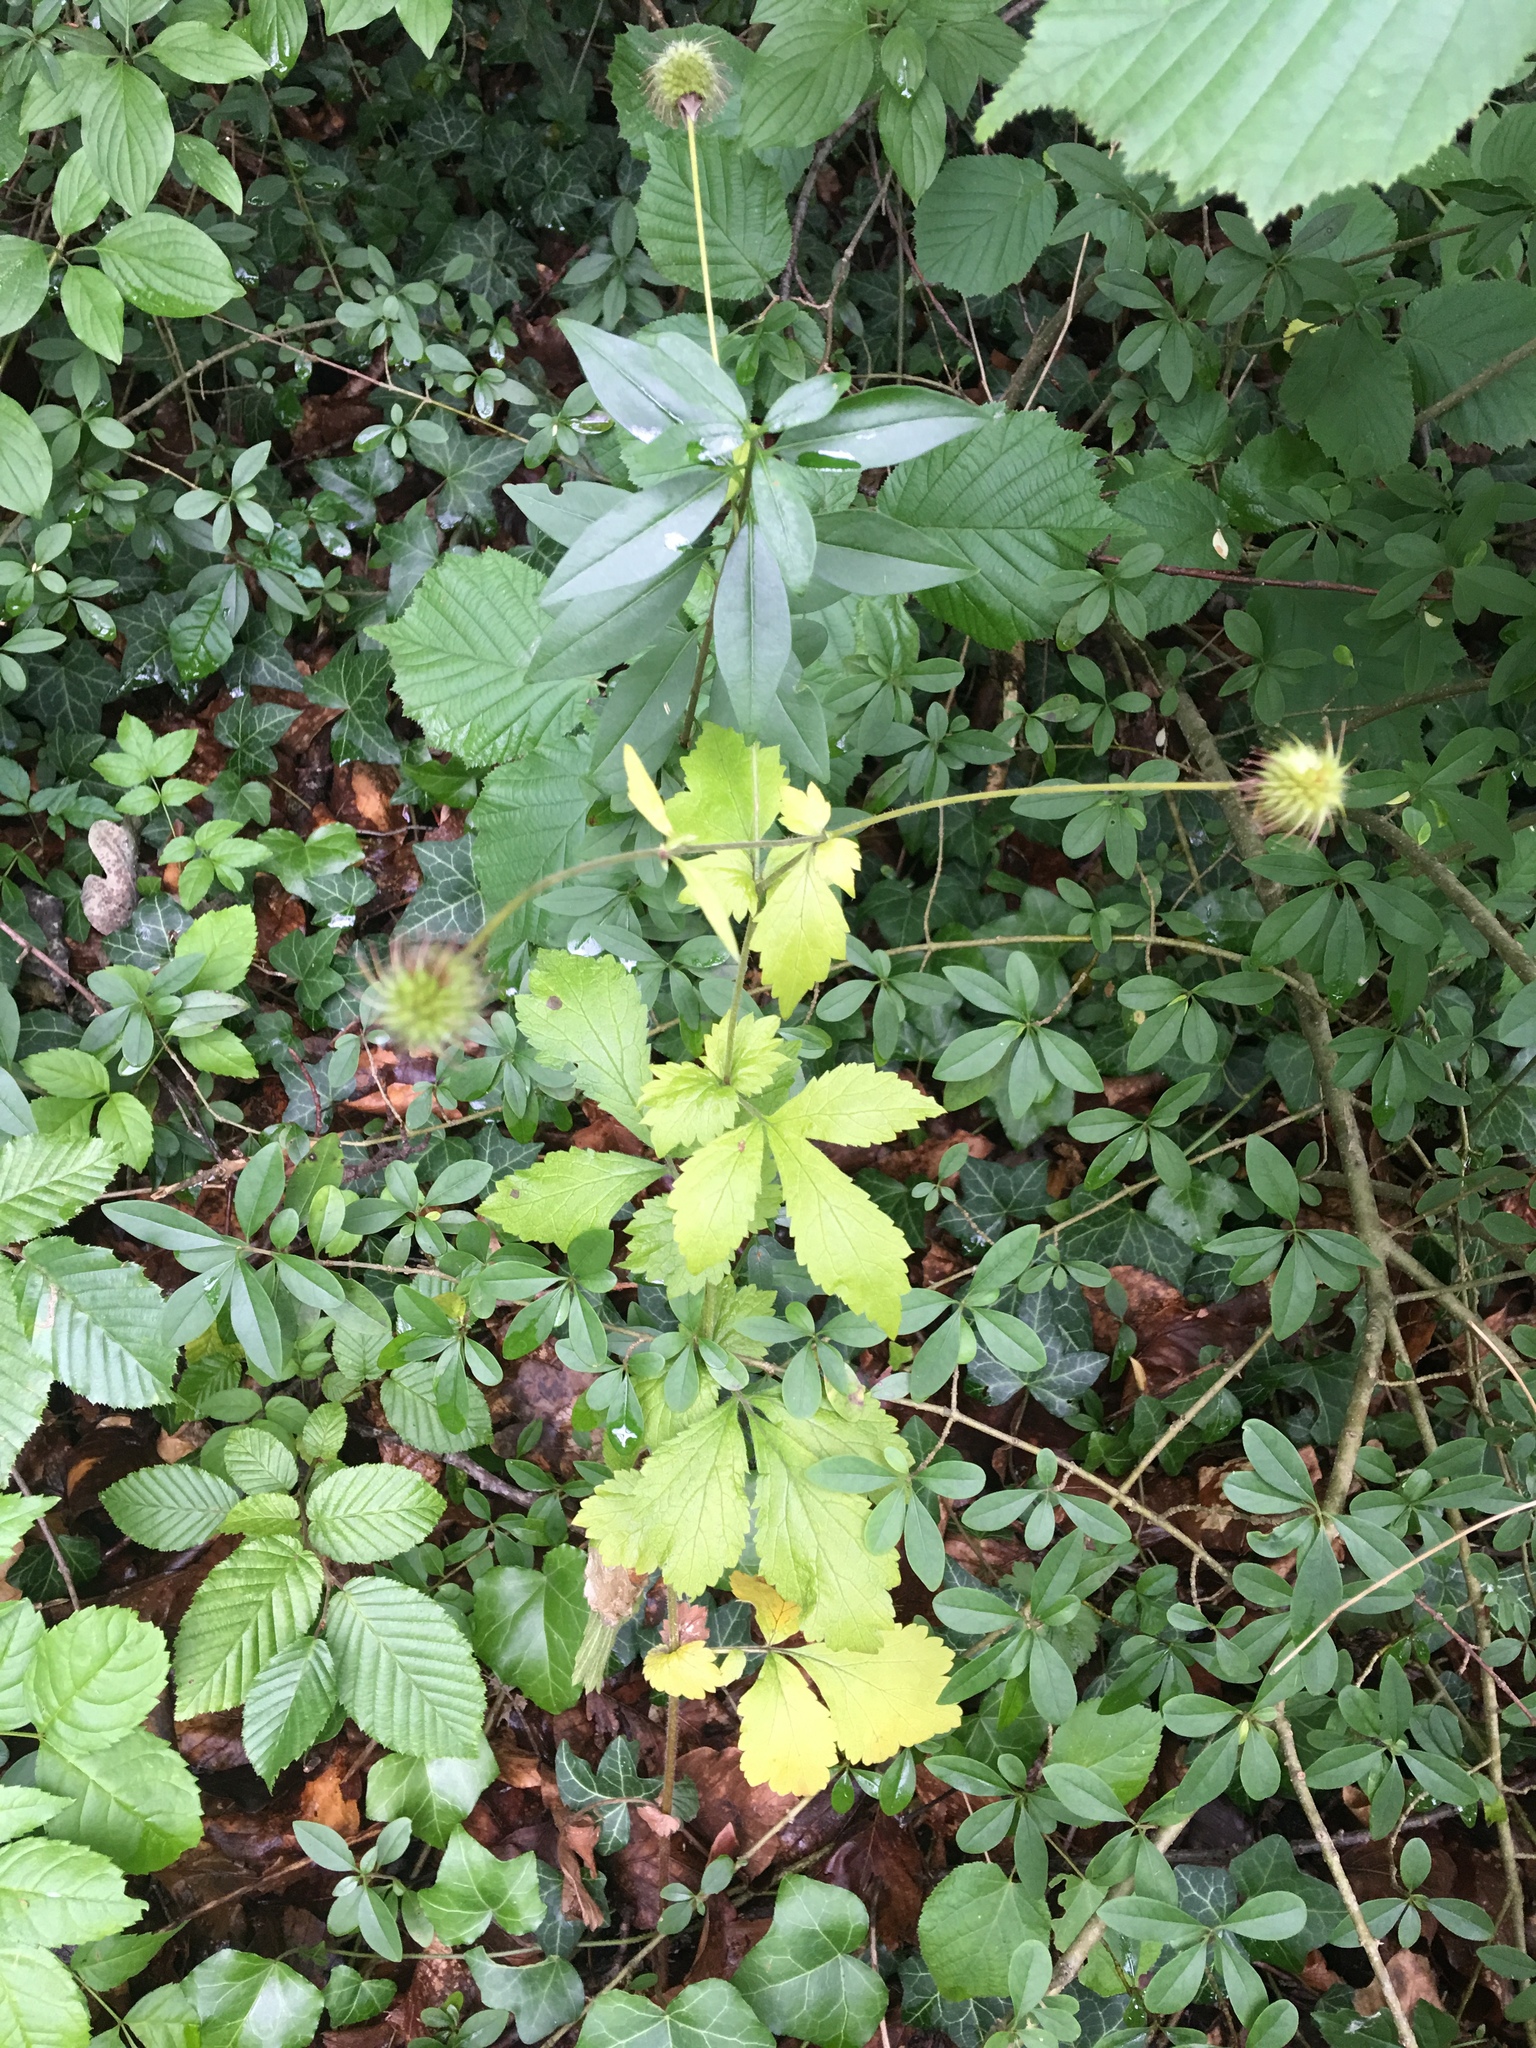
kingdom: Plantae
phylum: Tracheophyta
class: Magnoliopsida
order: Rosales
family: Rosaceae
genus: Geum
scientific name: Geum urbanum
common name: Wood avens
